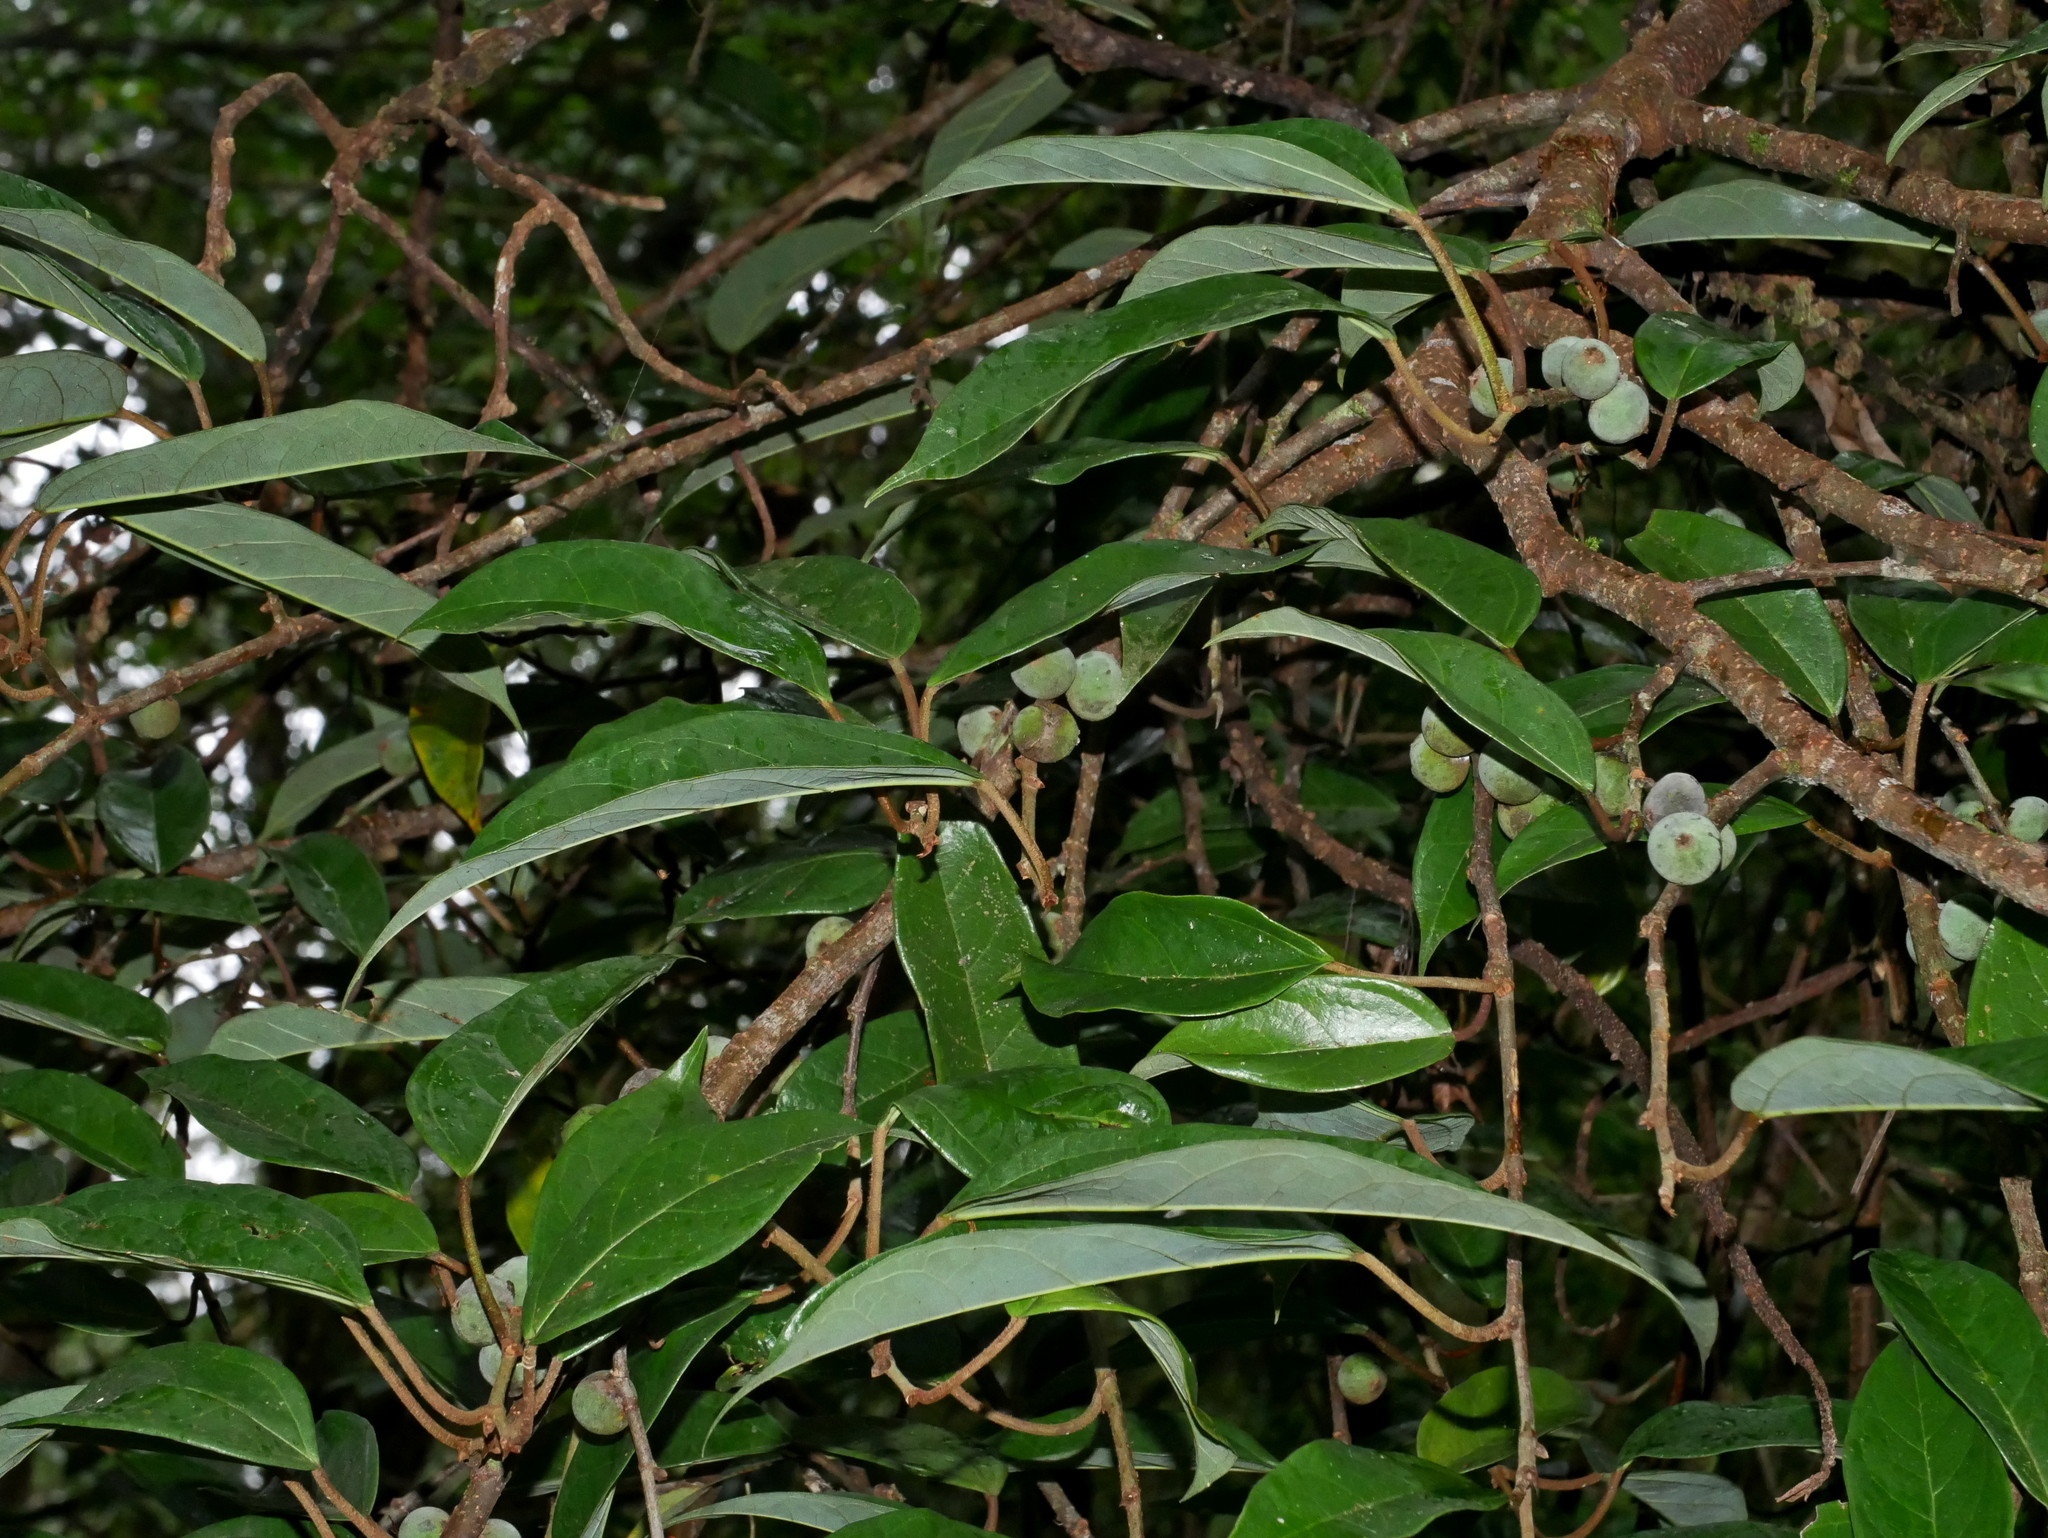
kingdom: Plantae
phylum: Tracheophyta
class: Magnoliopsida
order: Rosales
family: Moraceae
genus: Ficus
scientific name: Ficus sarmentosa
